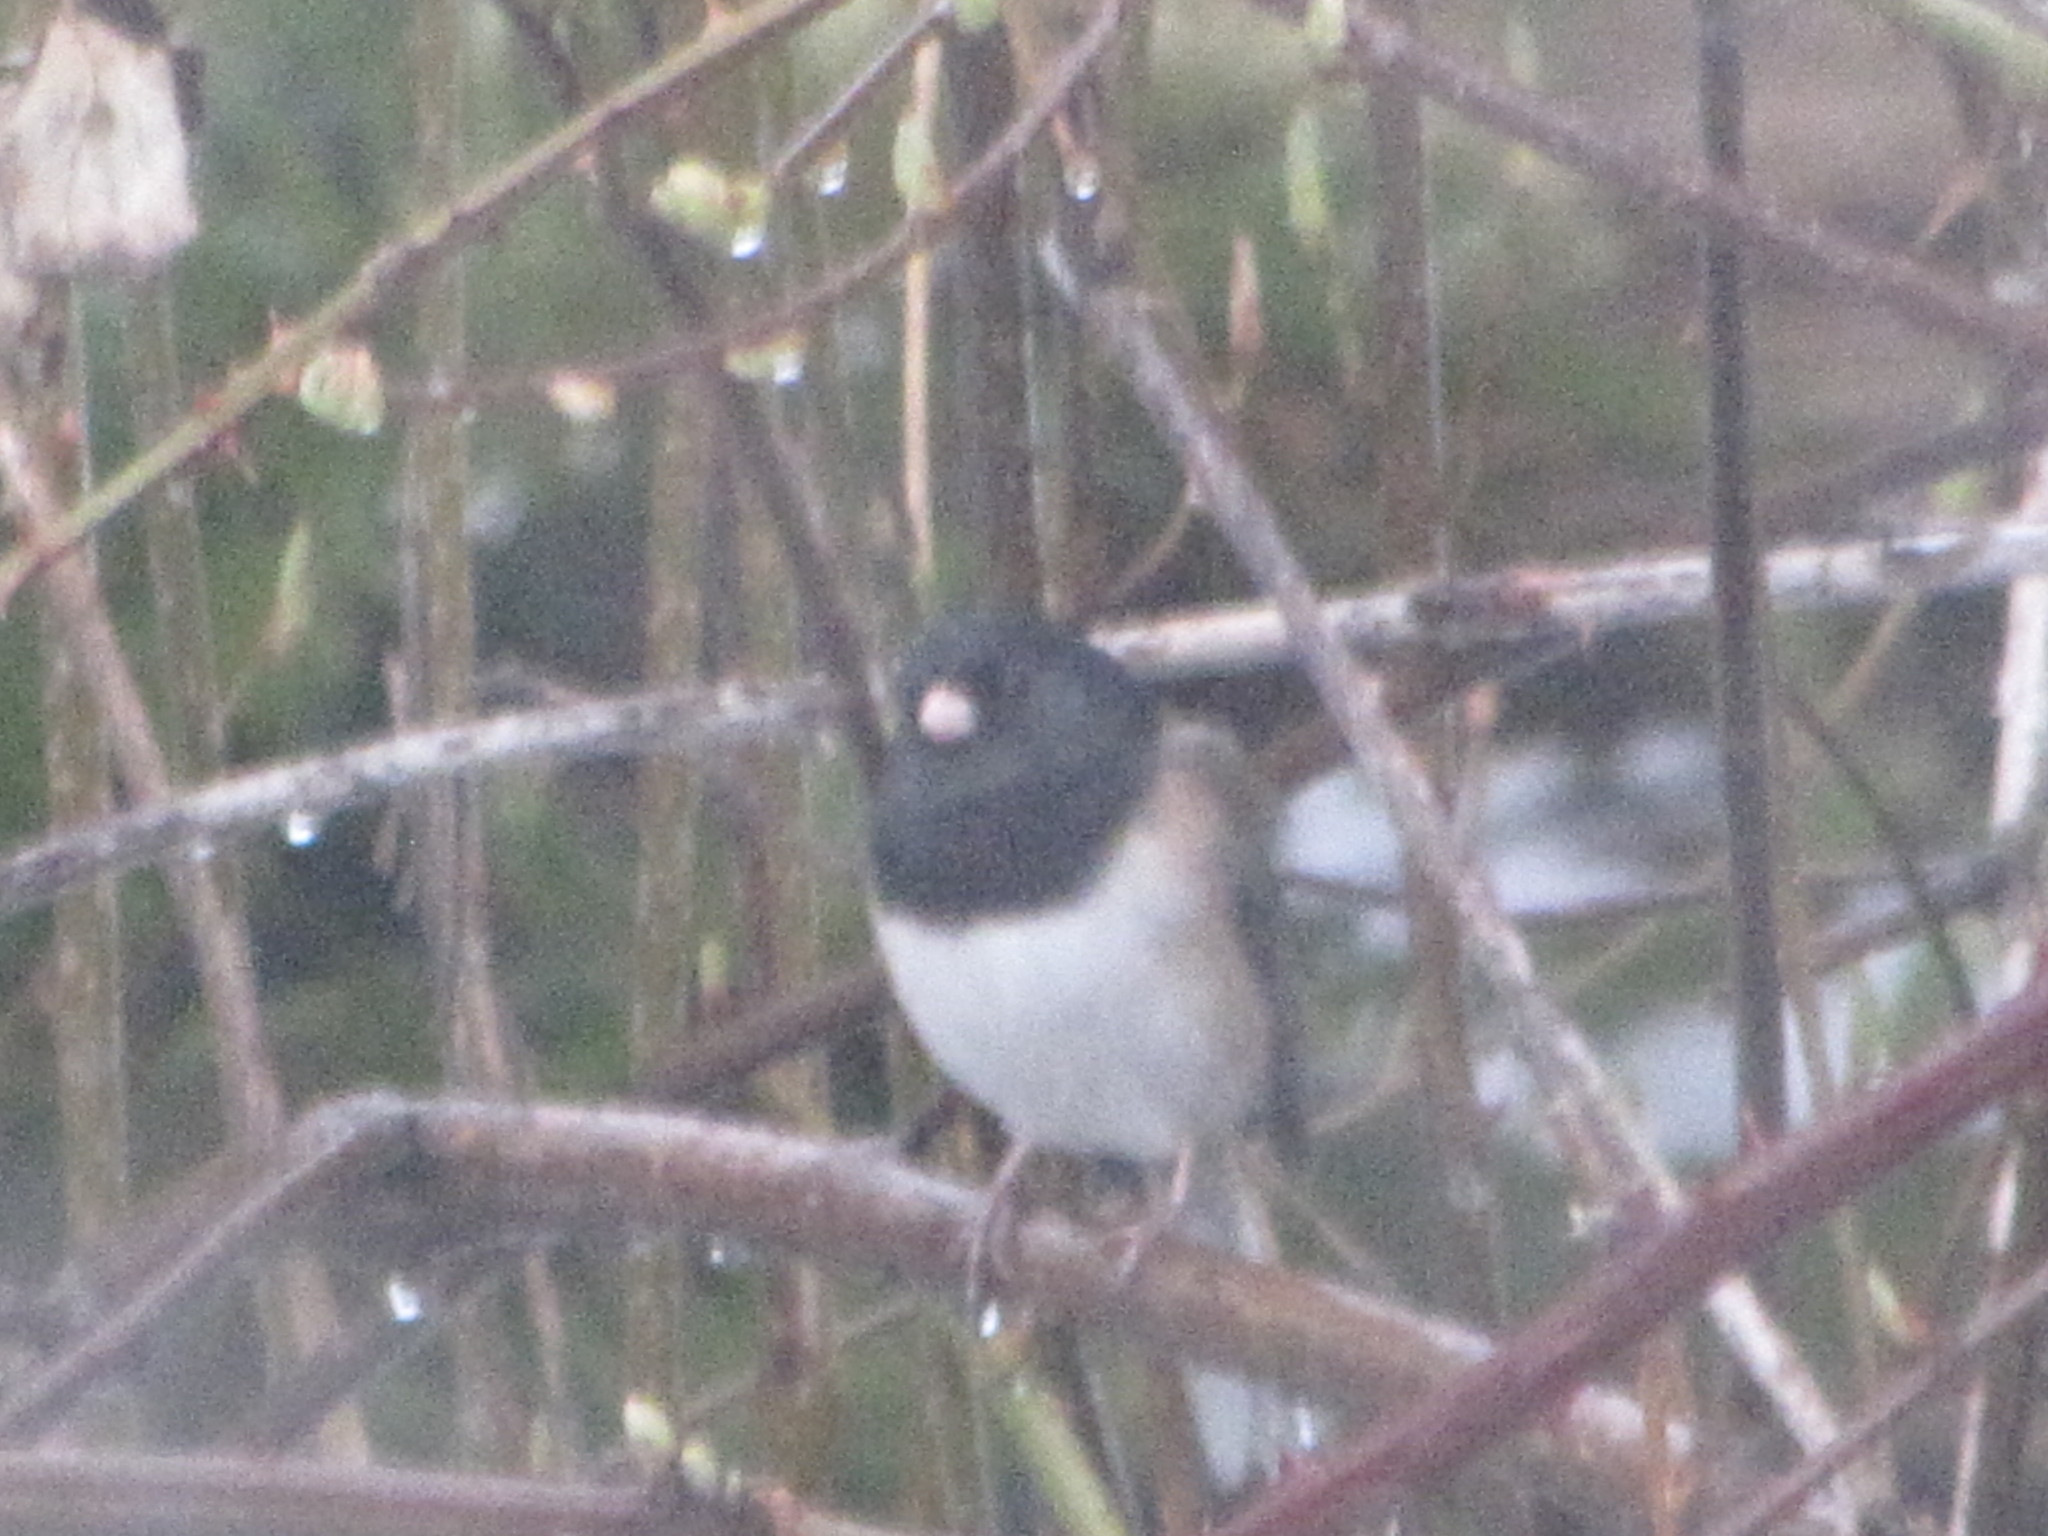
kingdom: Animalia
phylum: Chordata
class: Aves
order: Passeriformes
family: Passerellidae
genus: Junco
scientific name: Junco hyemalis
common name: Dark-eyed junco
